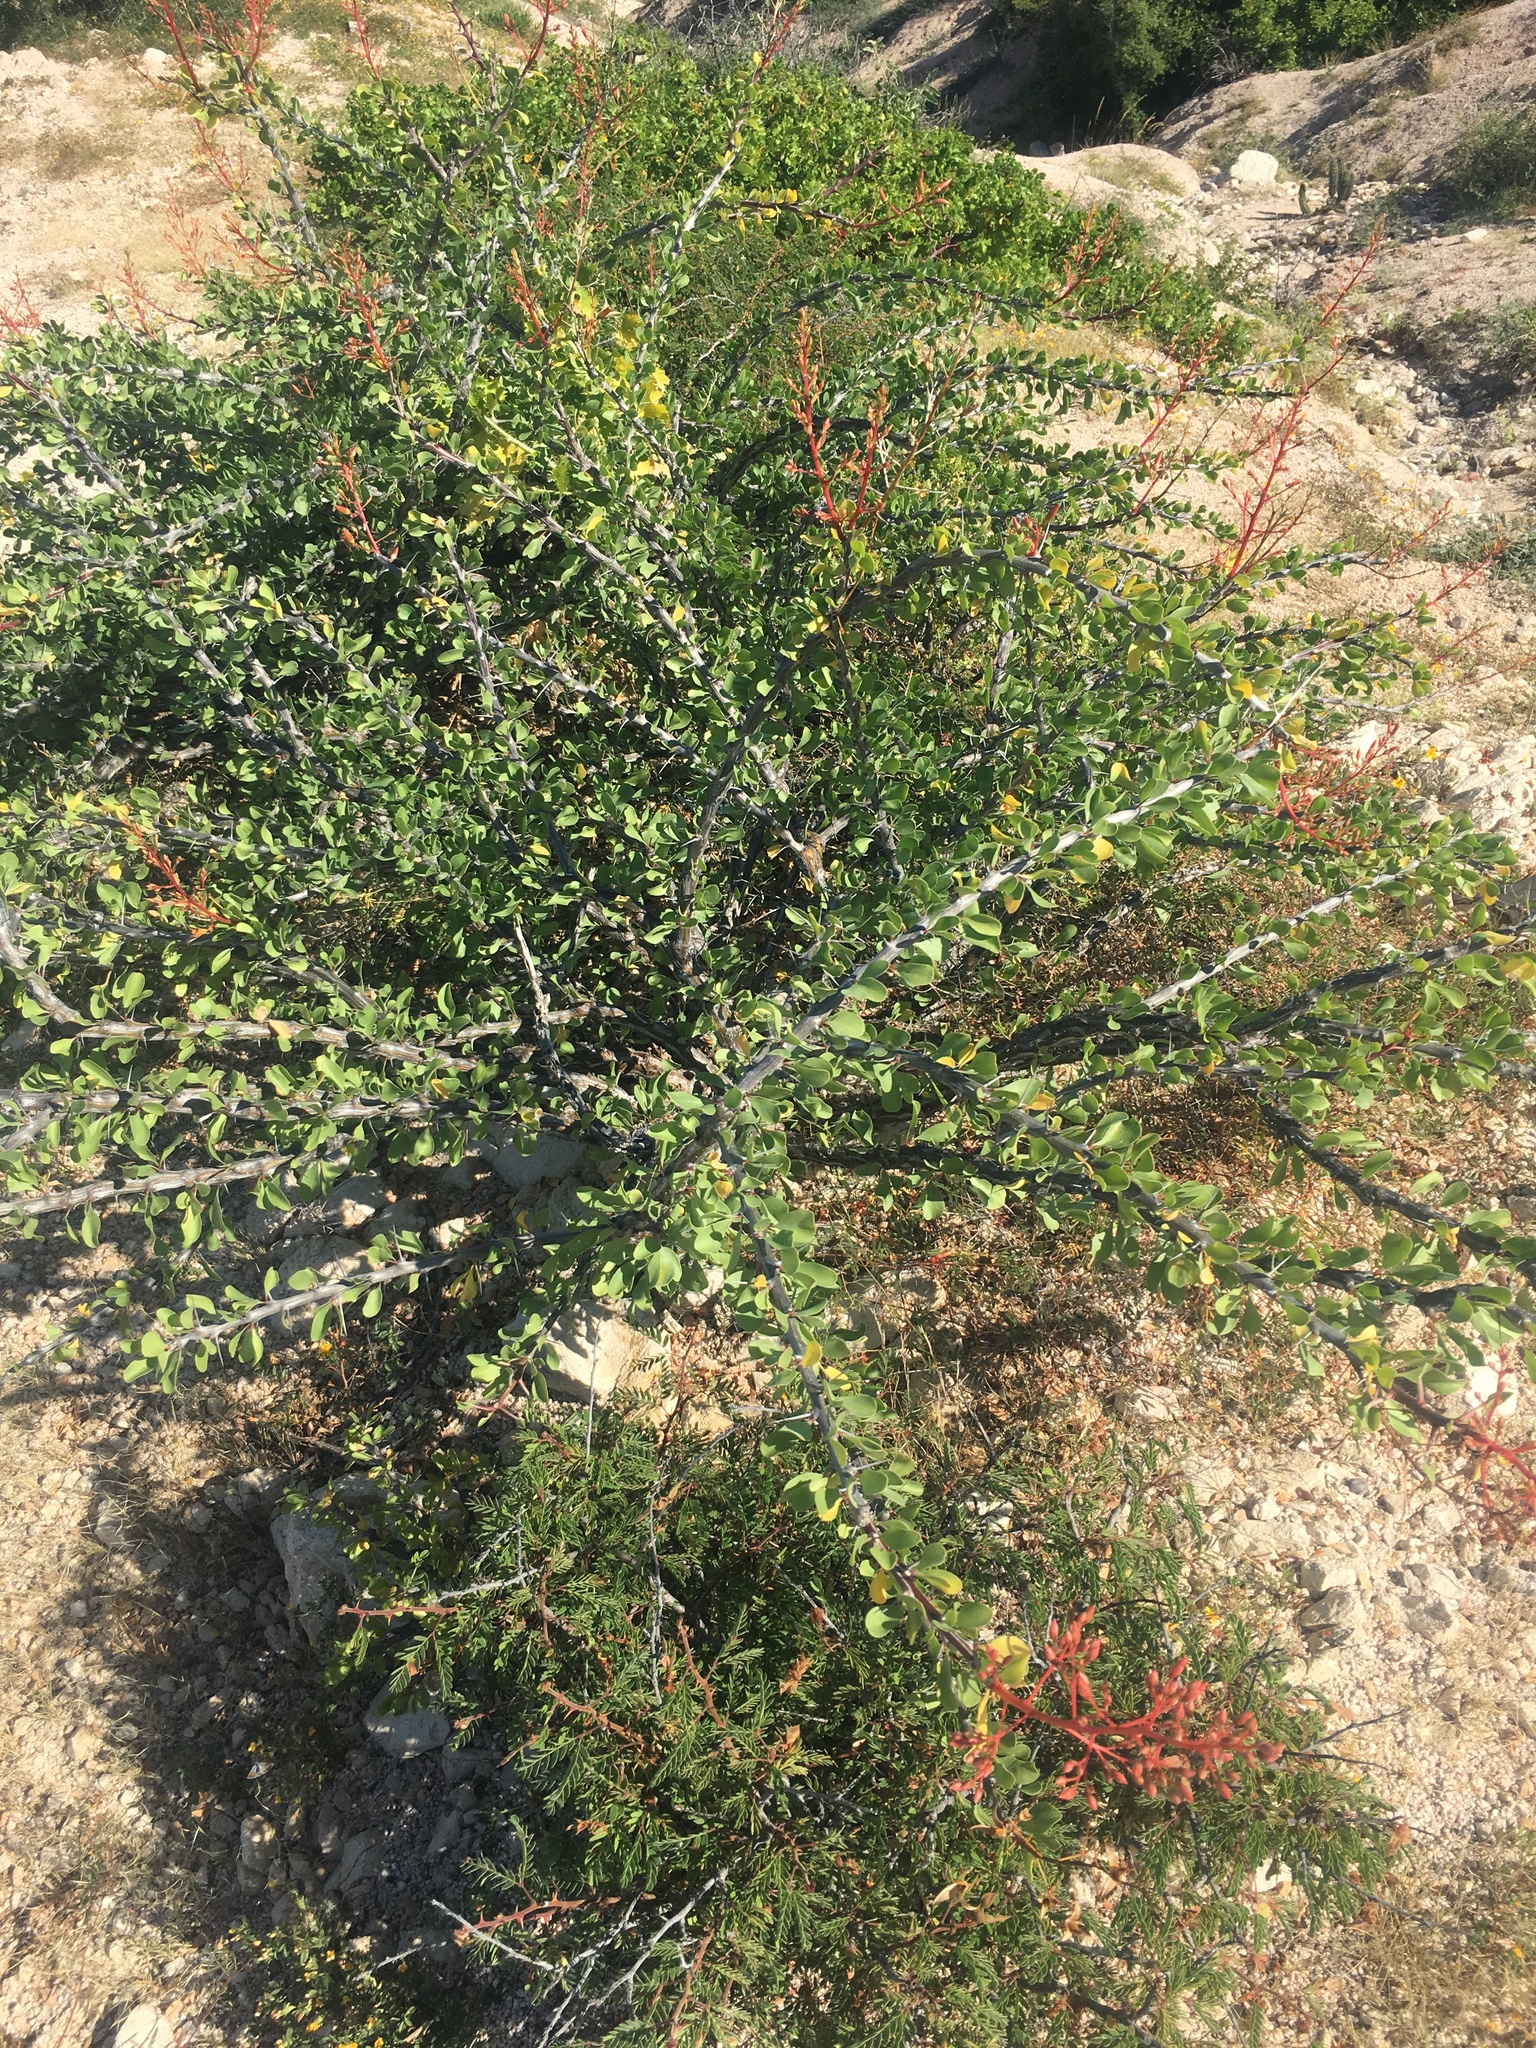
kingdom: Plantae
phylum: Tracheophyta
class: Magnoliopsida
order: Ericales
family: Fouquieriaceae
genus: Fouquieria
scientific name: Fouquieria diguetii
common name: Adam's tree
